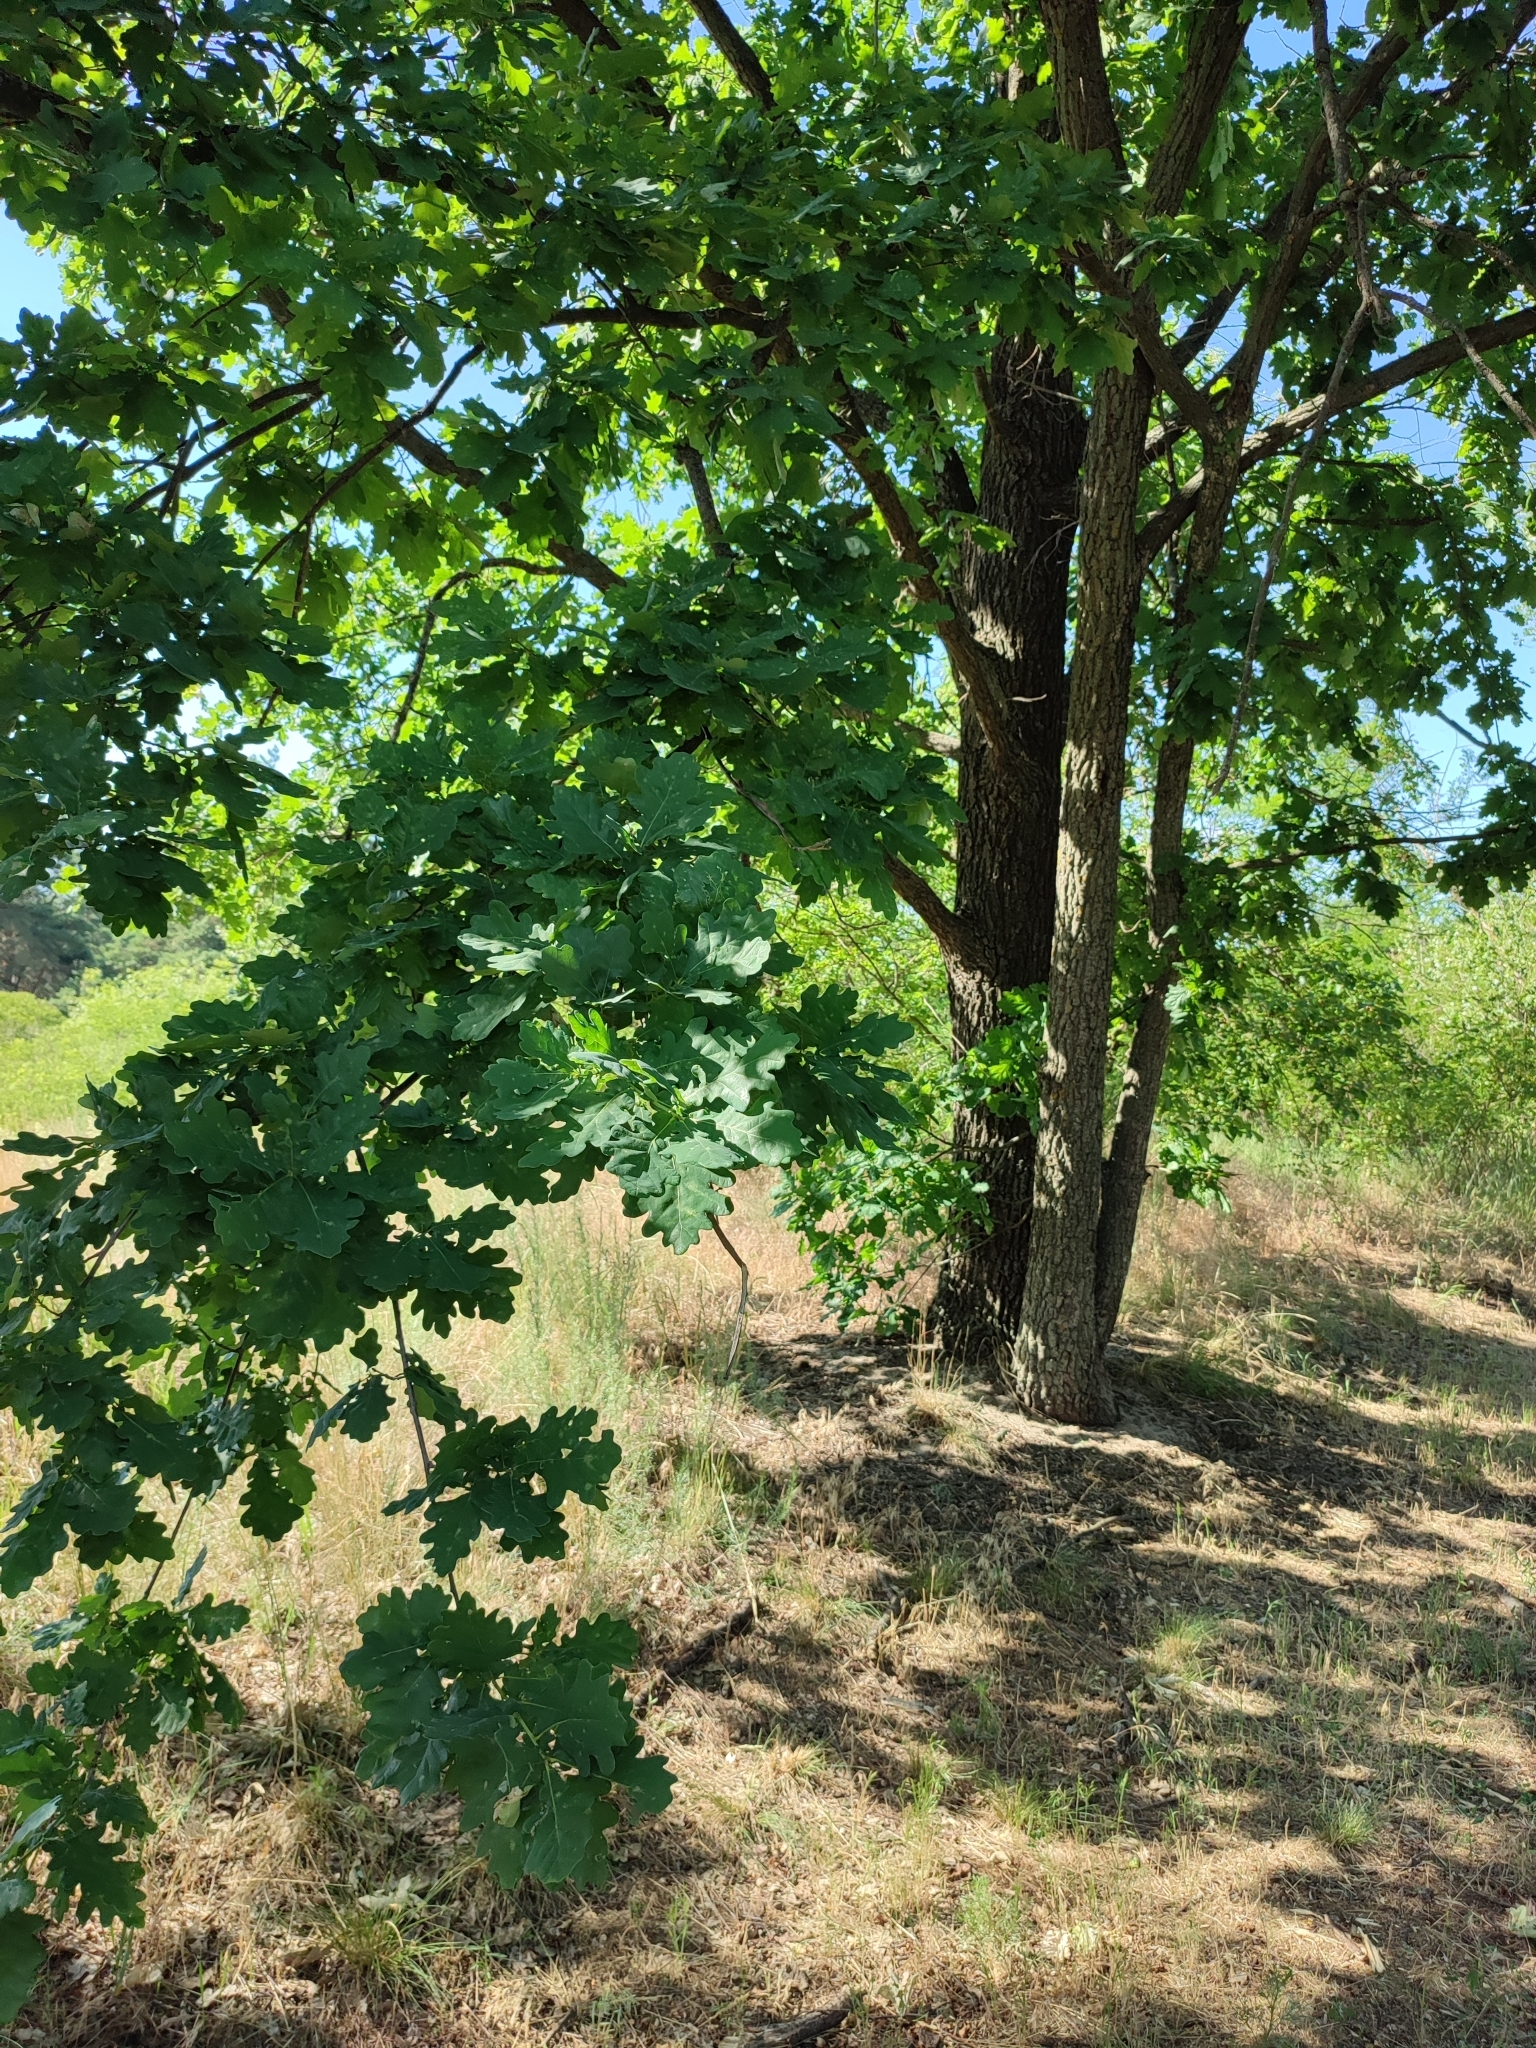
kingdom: Plantae
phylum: Tracheophyta
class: Magnoliopsida
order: Fagales
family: Fagaceae
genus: Quercus
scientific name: Quercus robur
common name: Pedunculate oak
